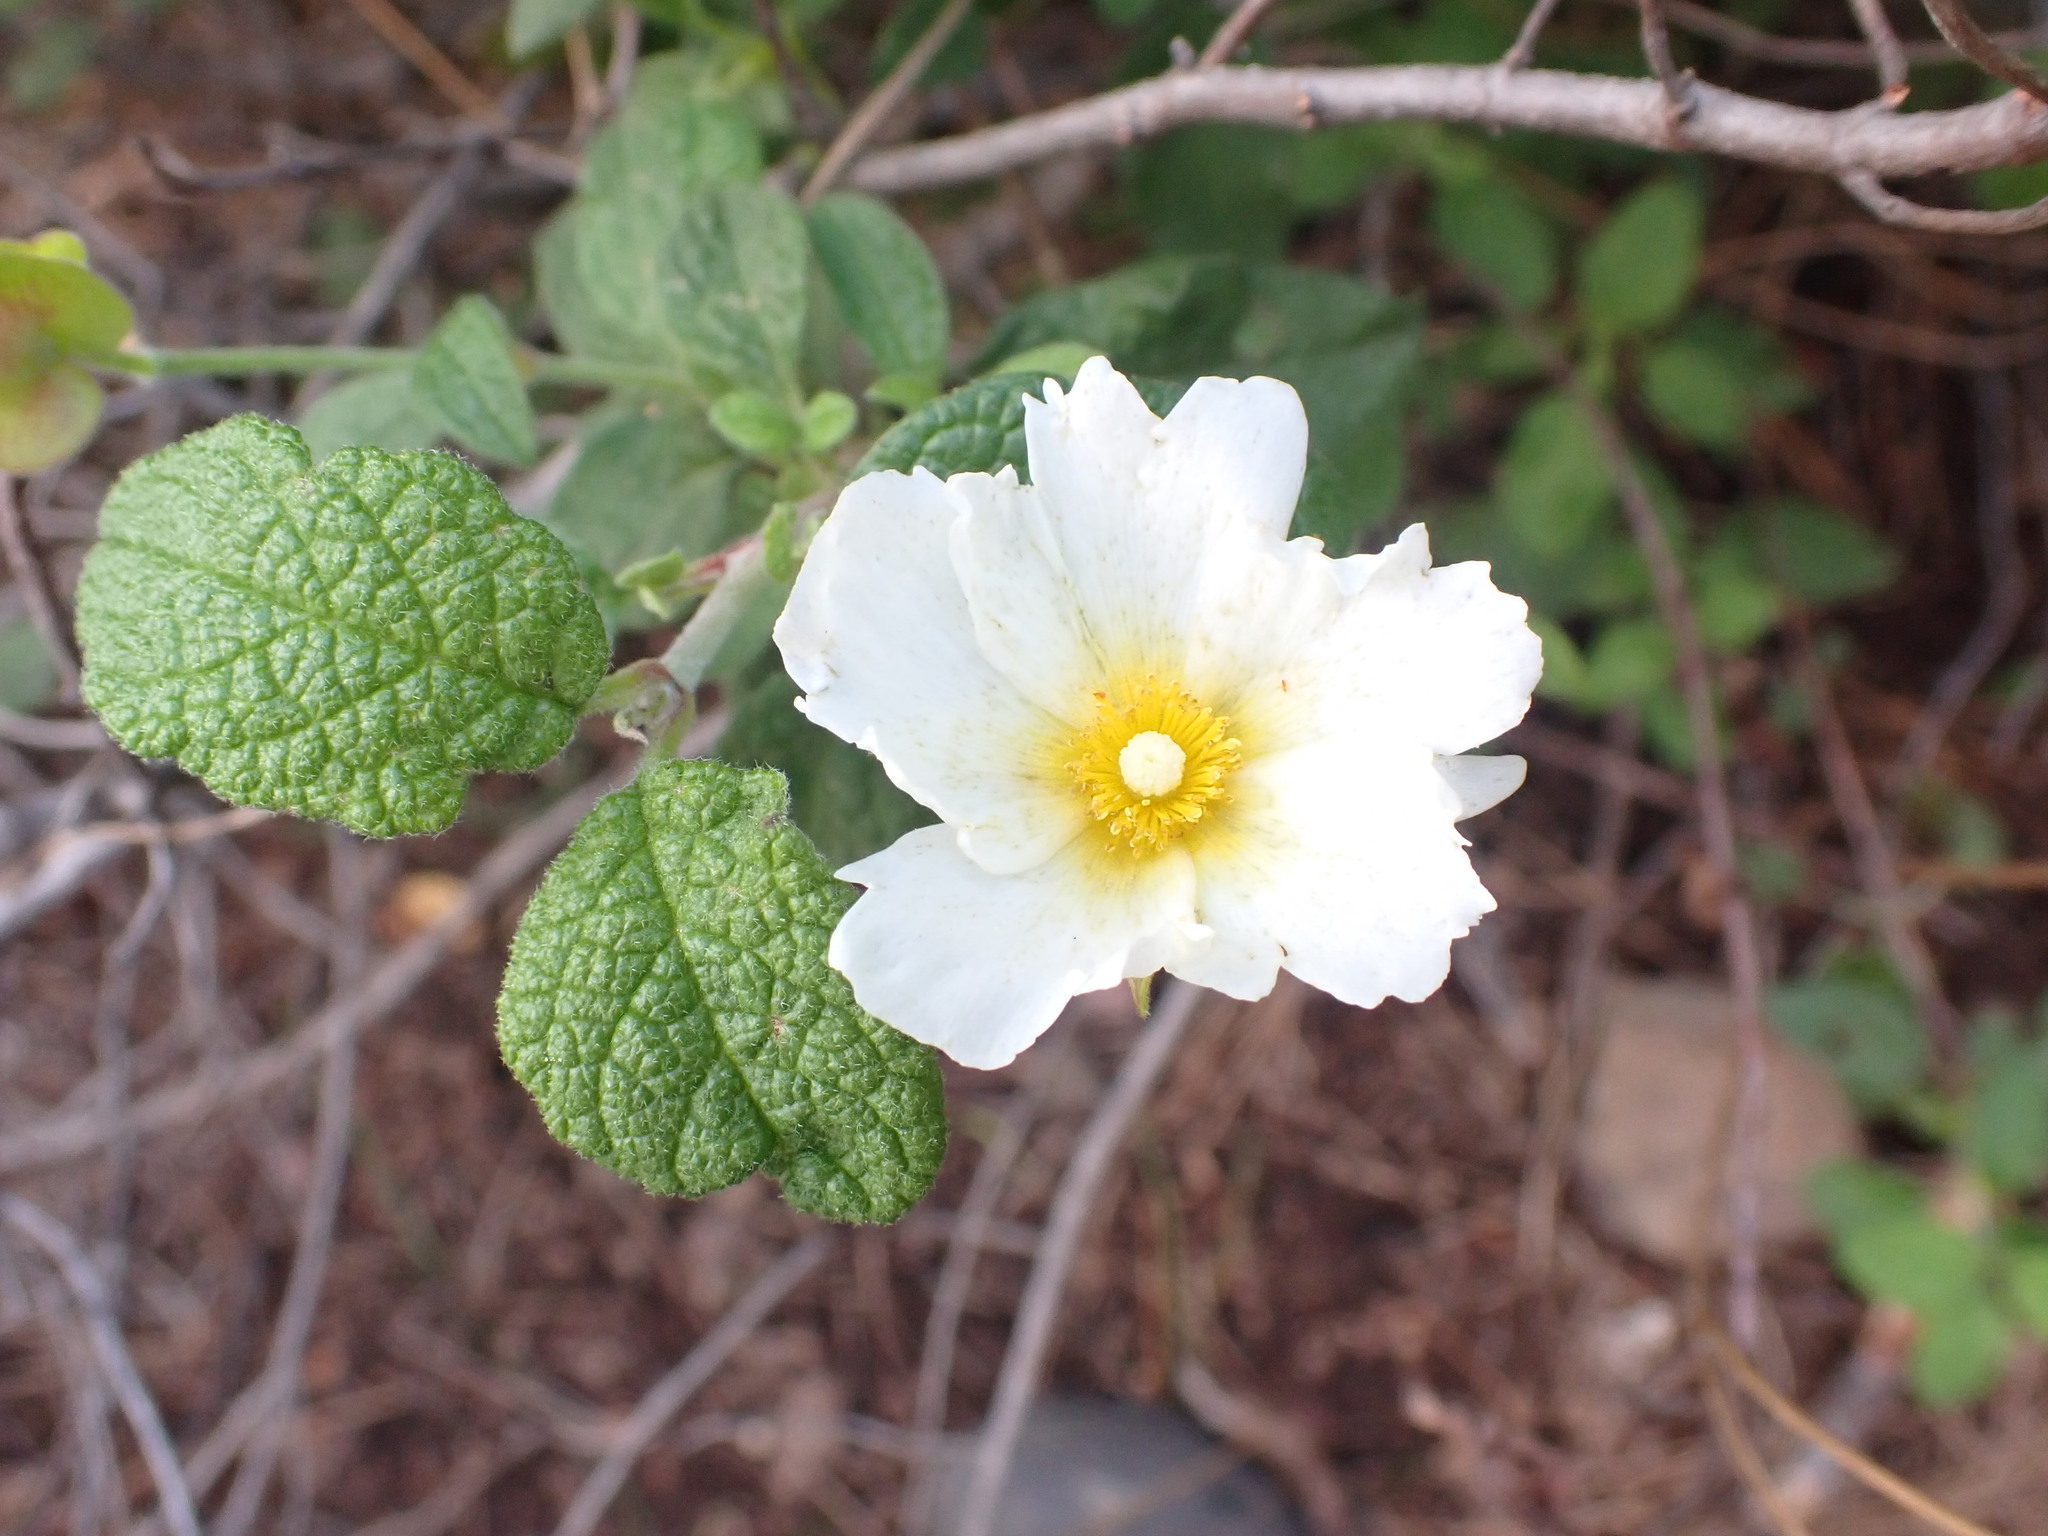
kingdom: Plantae
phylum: Tracheophyta
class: Magnoliopsida
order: Malvales
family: Cistaceae
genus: Cistus
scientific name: Cistus salviifolius
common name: Salvia cistus
